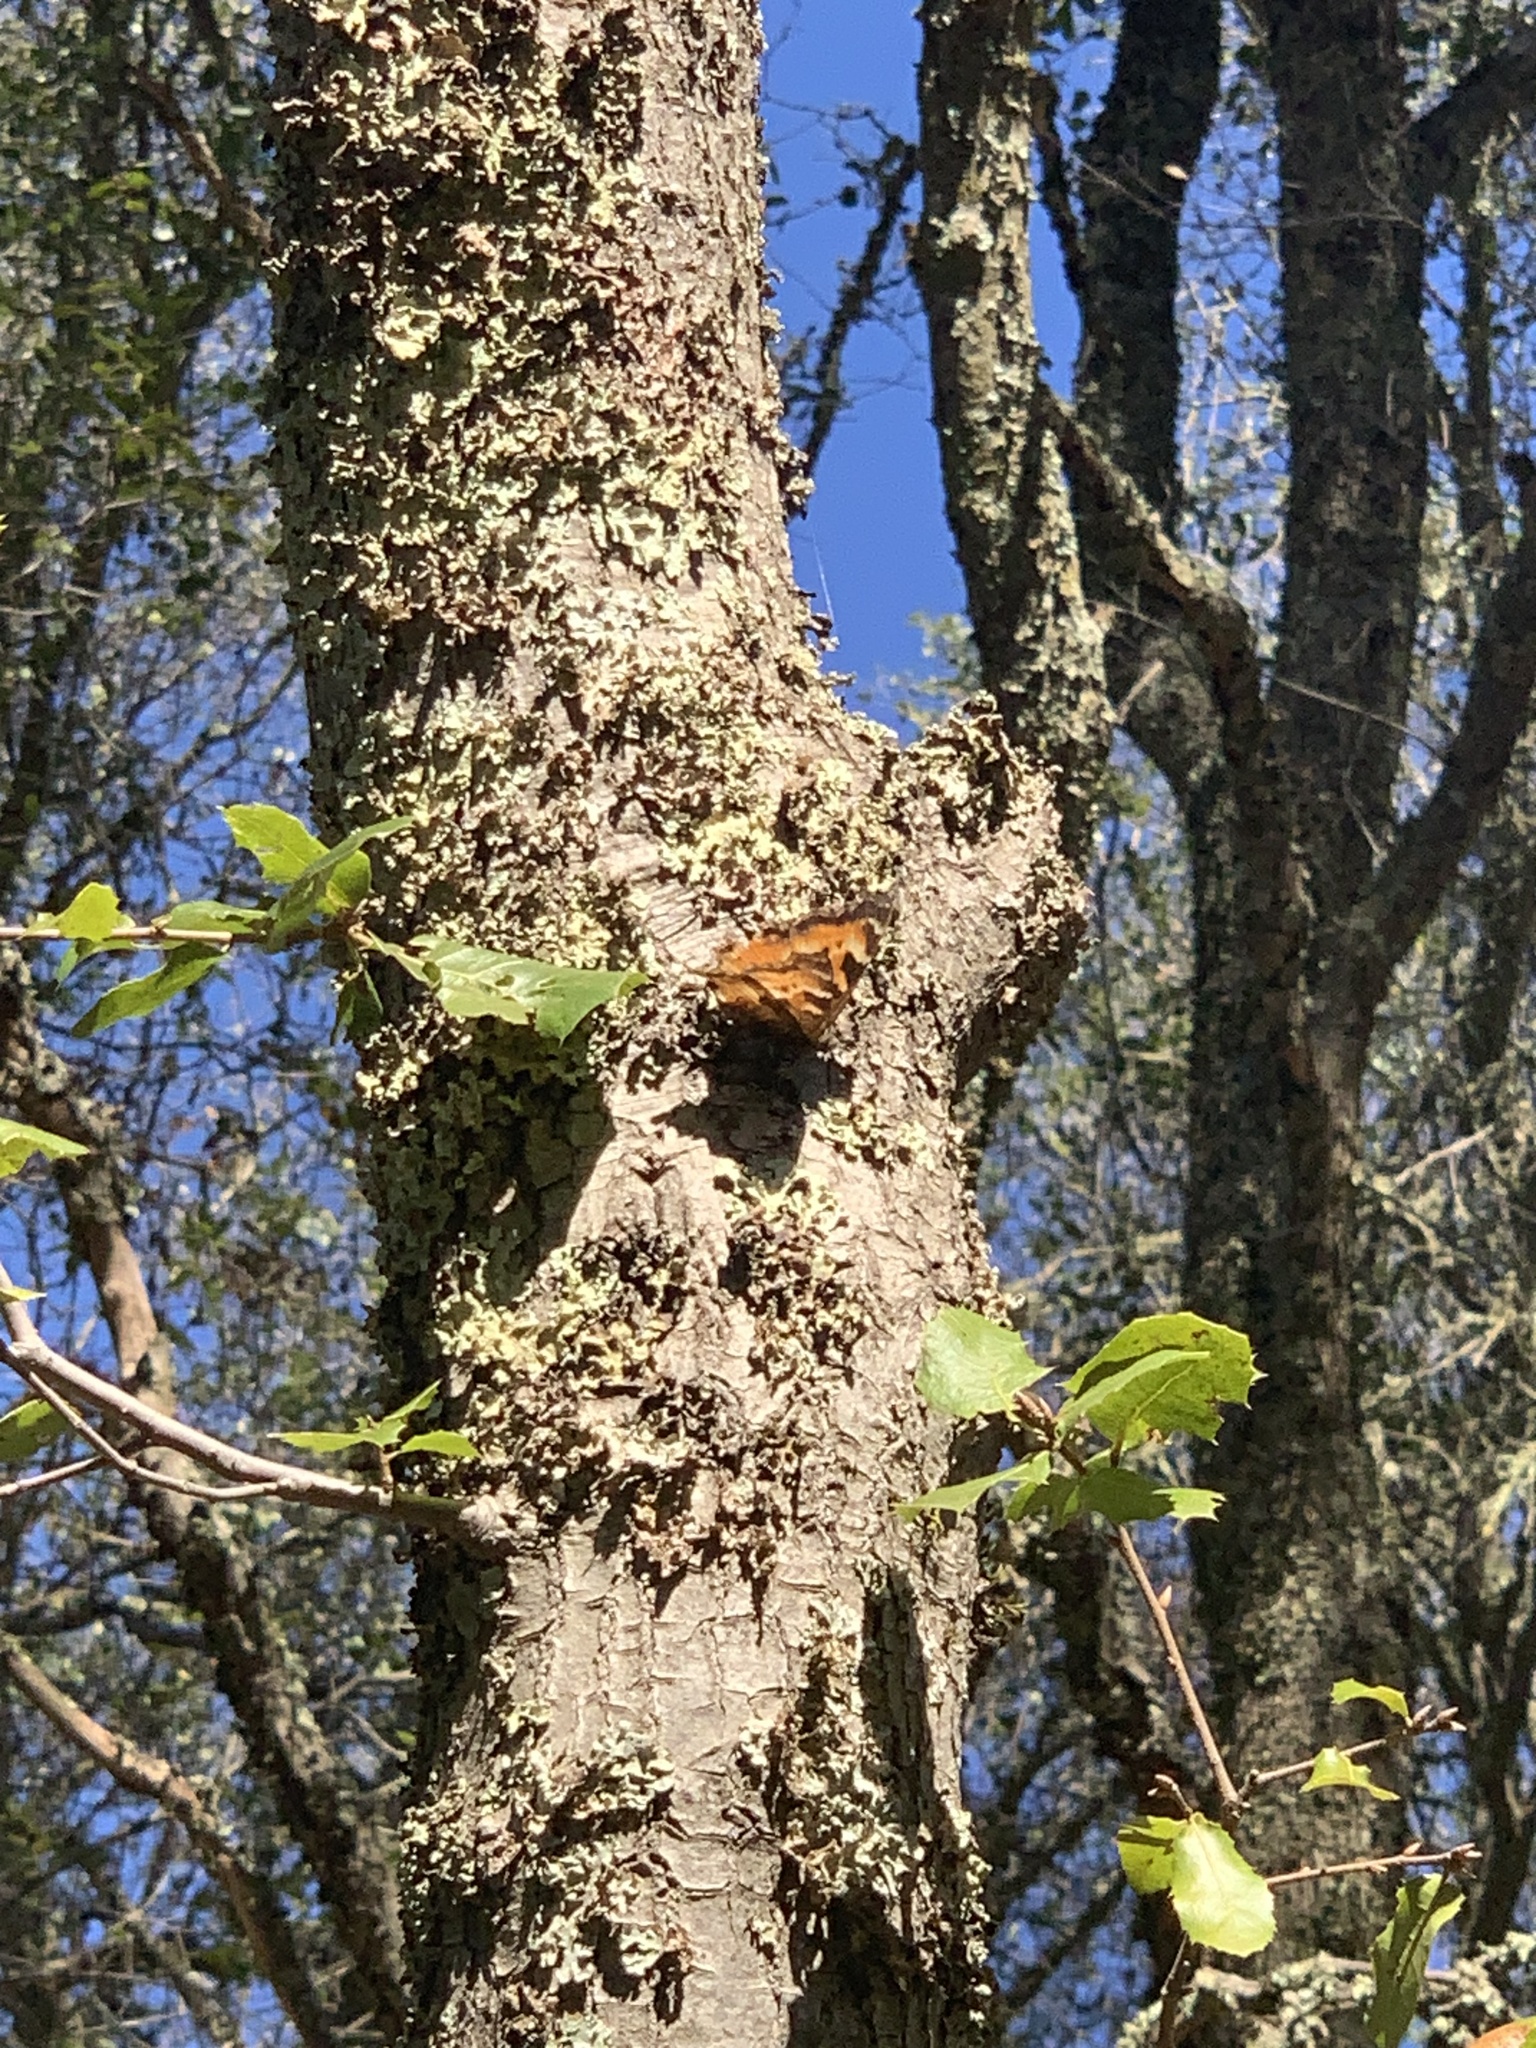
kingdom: Animalia
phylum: Arthropoda
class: Insecta
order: Lepidoptera
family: Nymphalidae
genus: Nymphalis
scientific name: Nymphalis californica
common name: California tortoiseshell
